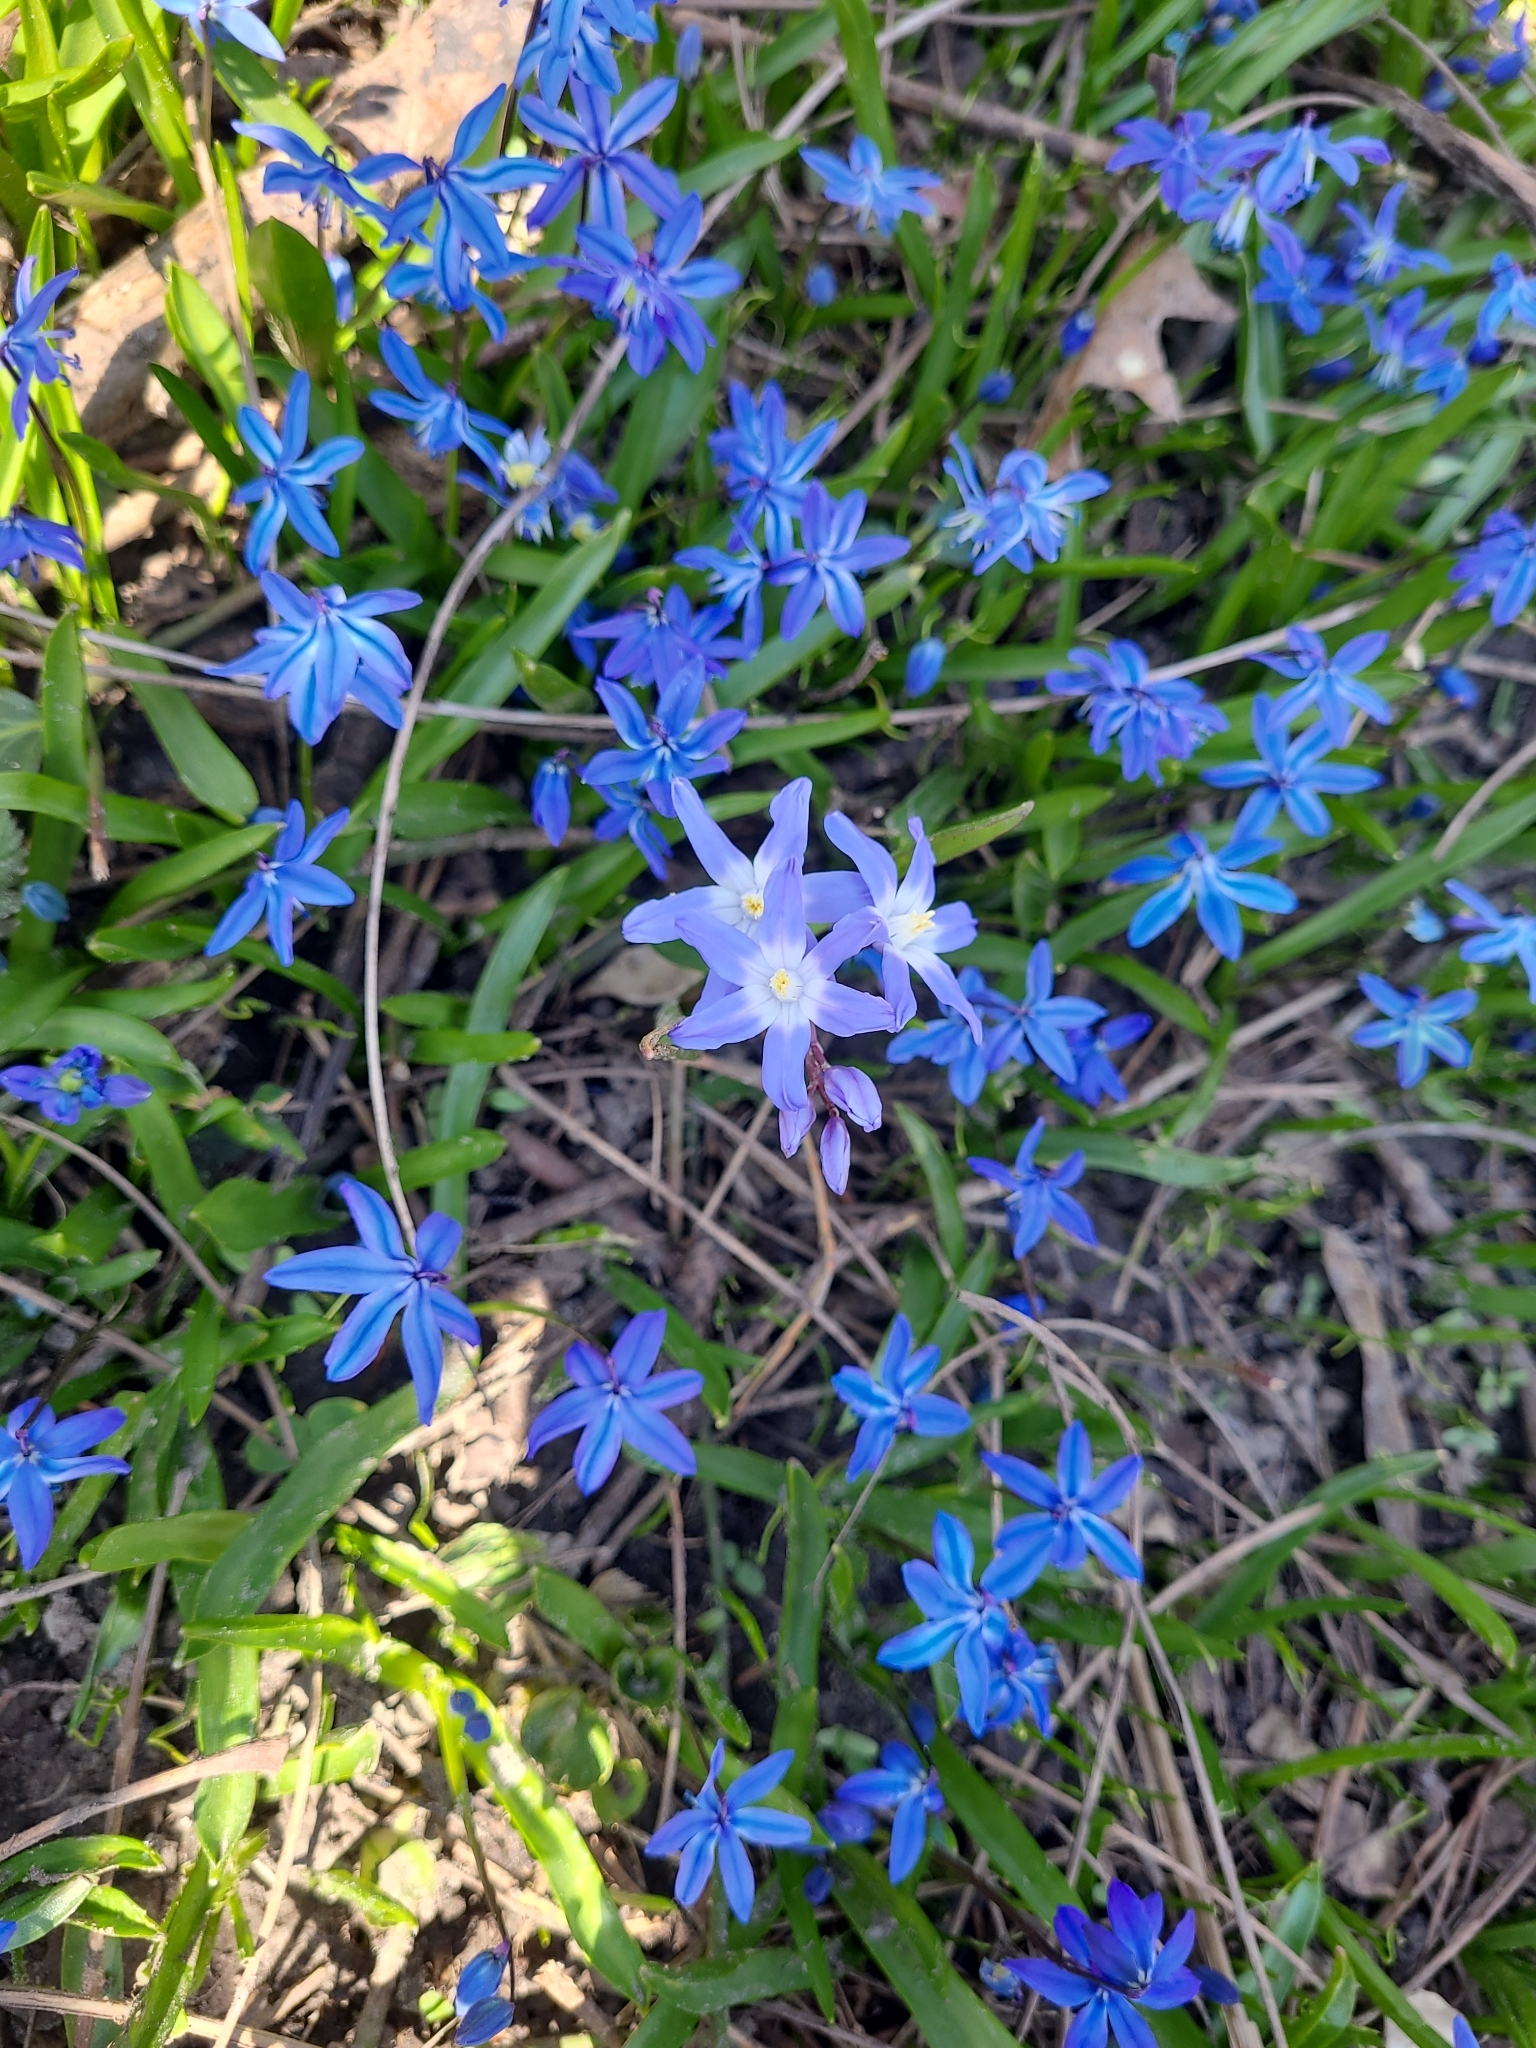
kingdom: Plantae
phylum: Tracheophyta
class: Liliopsida
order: Asparagales
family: Asparagaceae
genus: Scilla
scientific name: Scilla siberica
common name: Siberian squill
